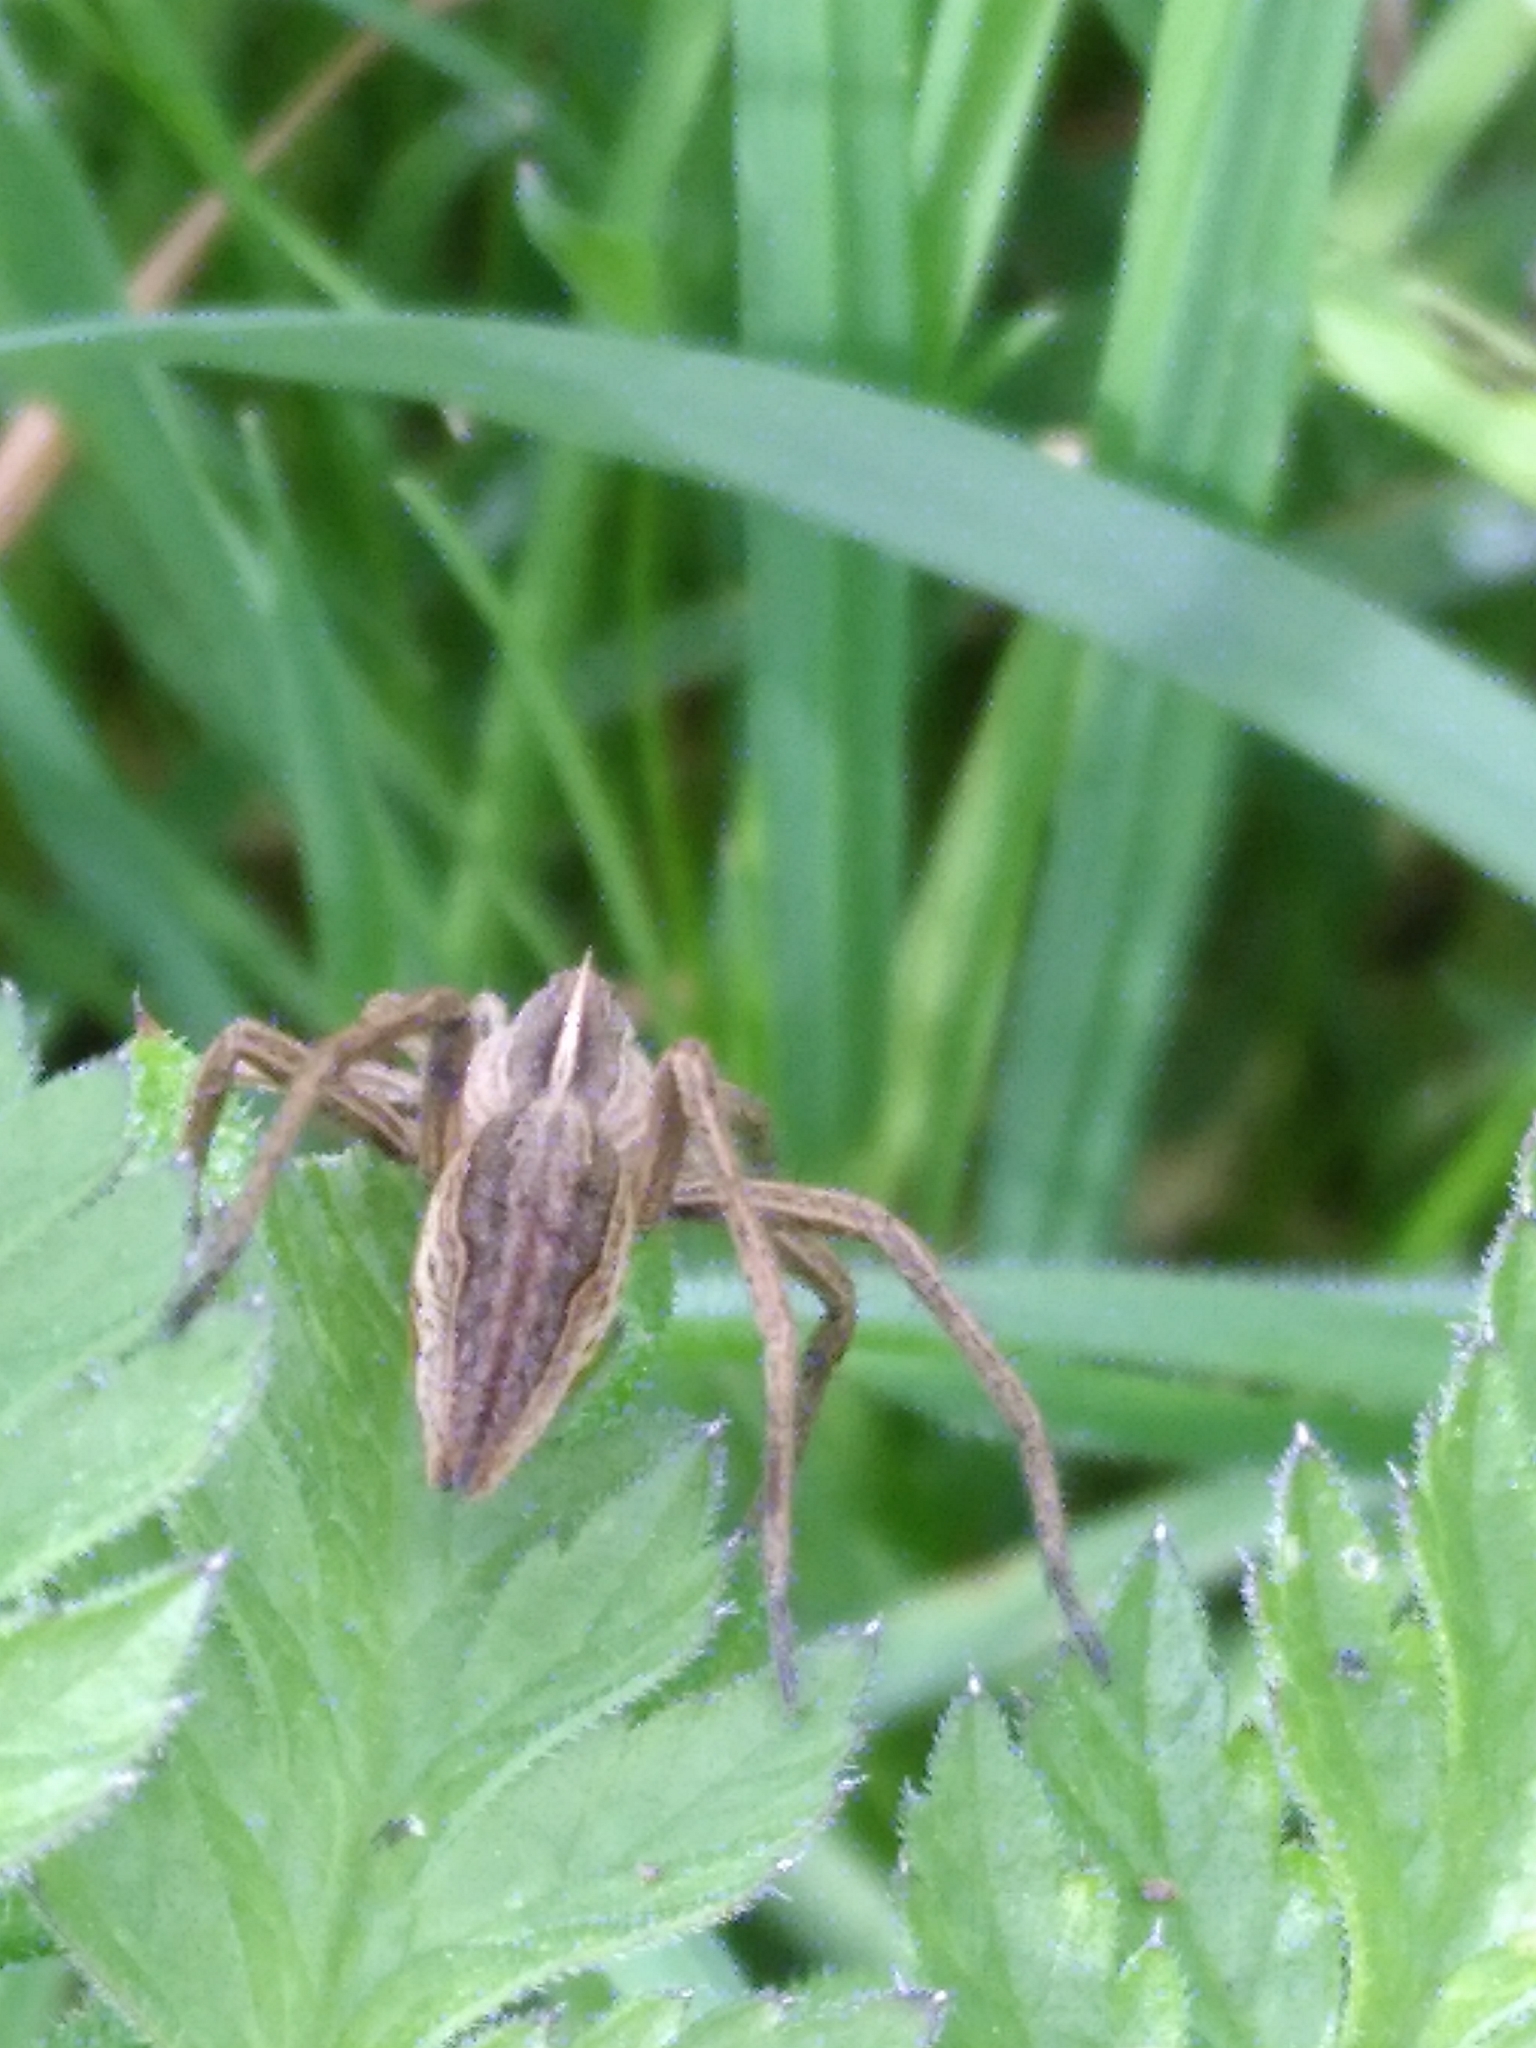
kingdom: Animalia
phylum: Arthropoda
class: Arachnida
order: Araneae
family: Pisauridae
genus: Pisaura
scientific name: Pisaura mirabilis
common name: Tent spider
